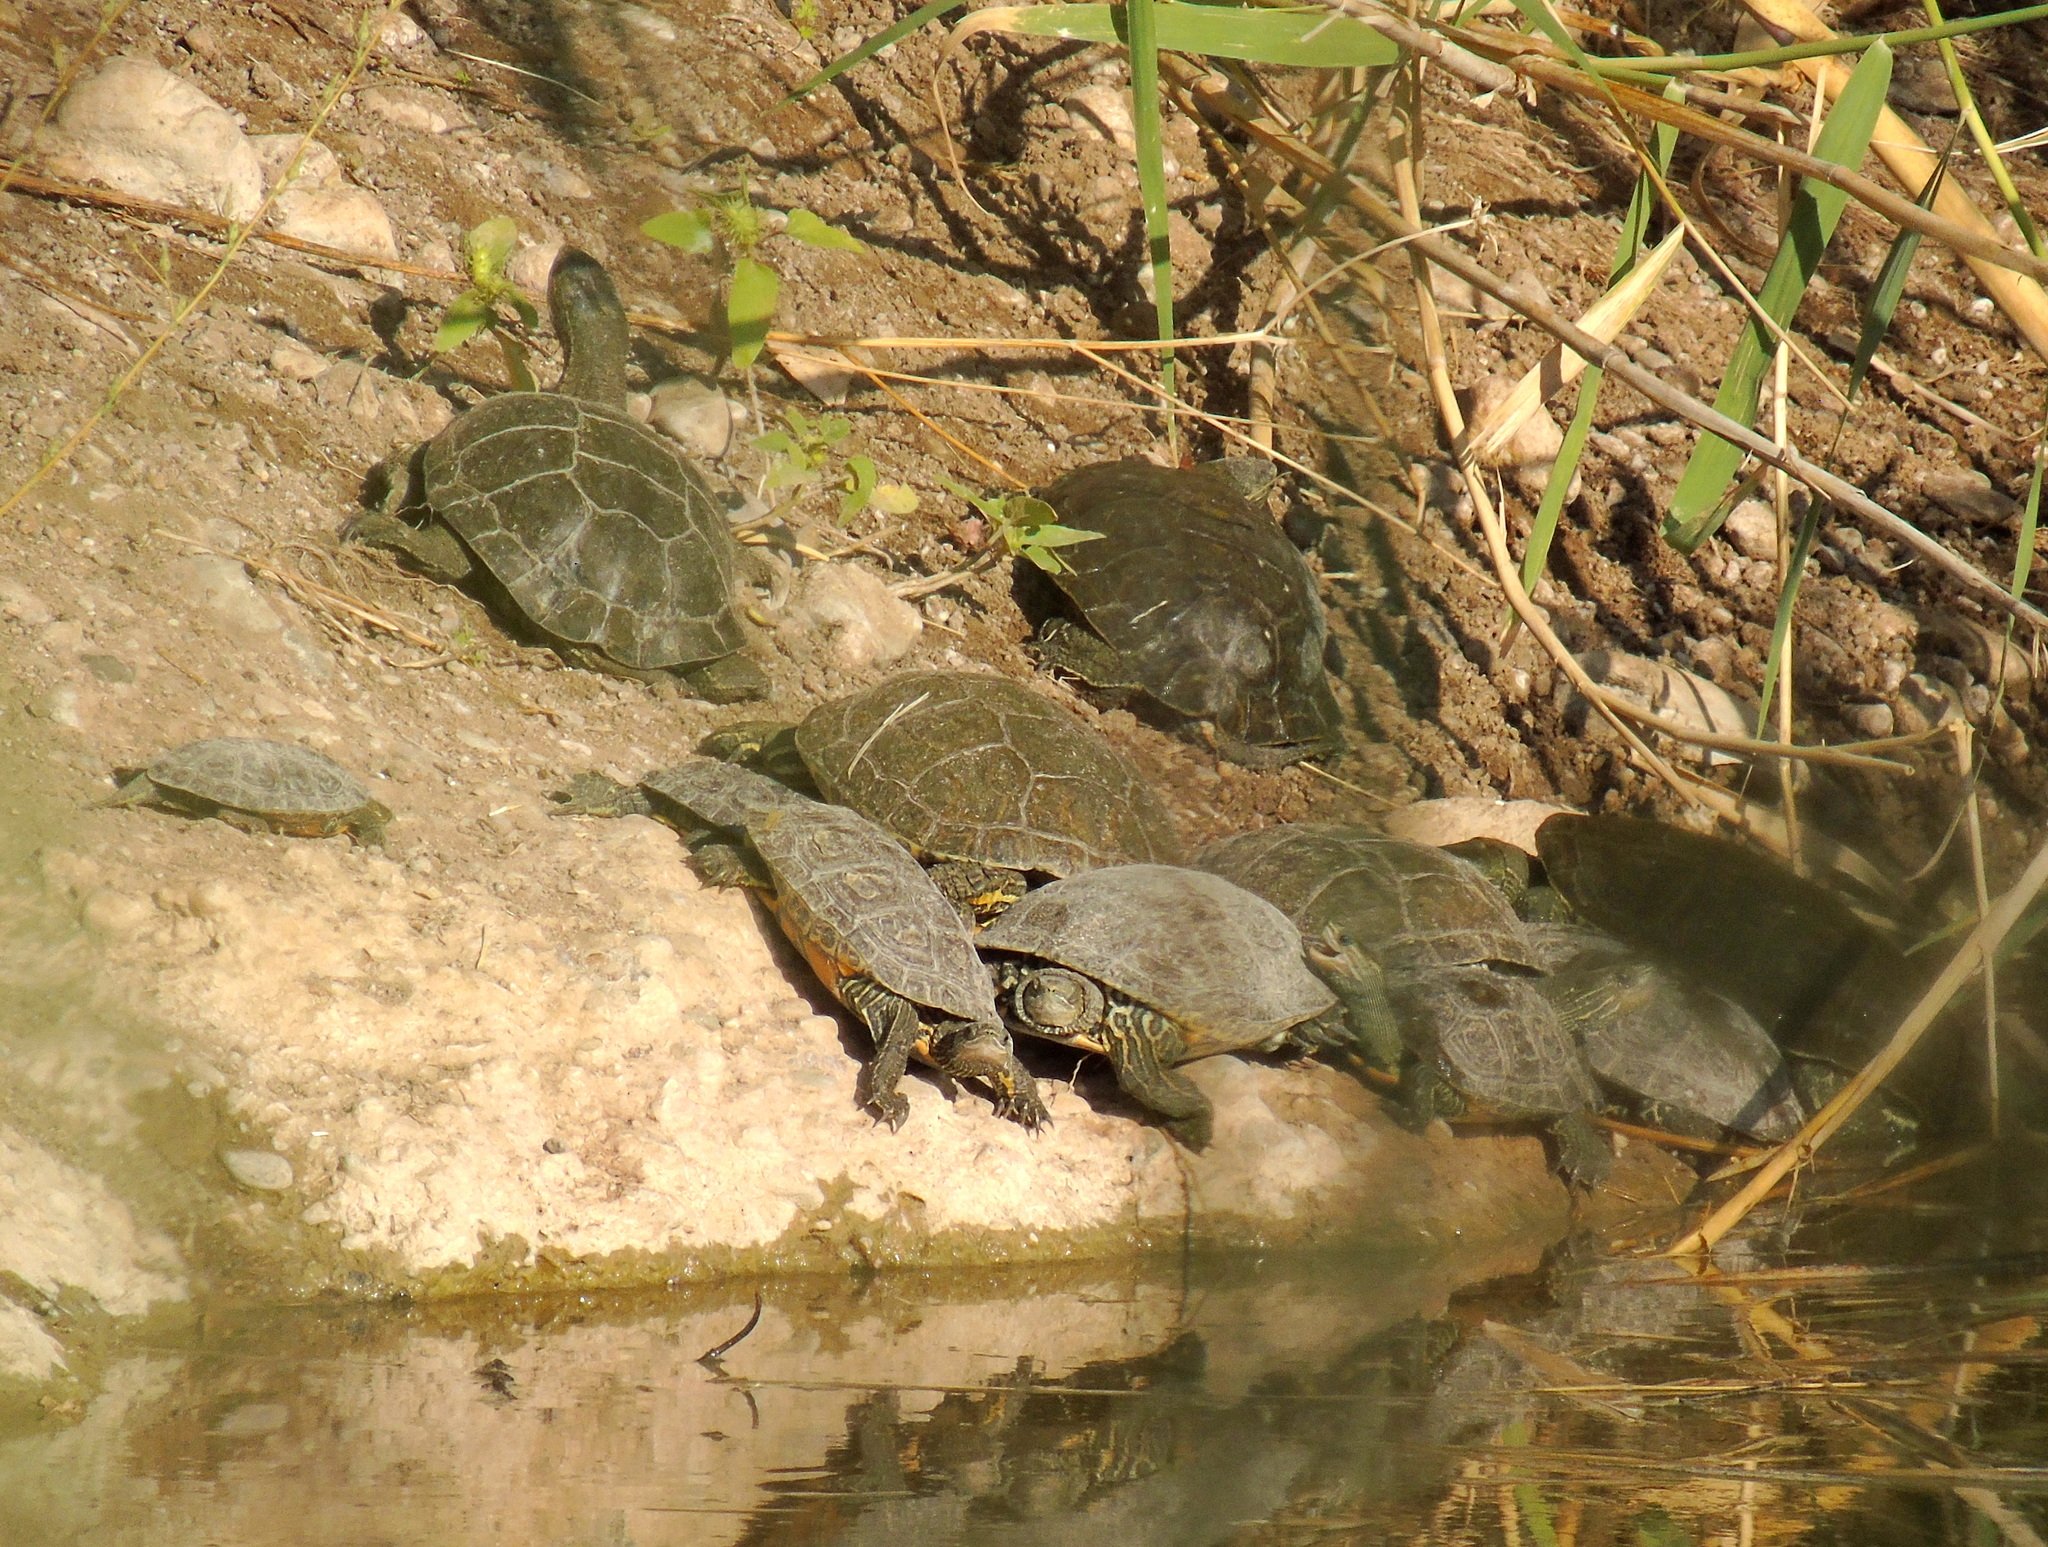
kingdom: Animalia
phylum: Chordata
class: Testudines
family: Geoemydidae
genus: Mauremys
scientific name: Mauremys caspica
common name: Caspian turtle
